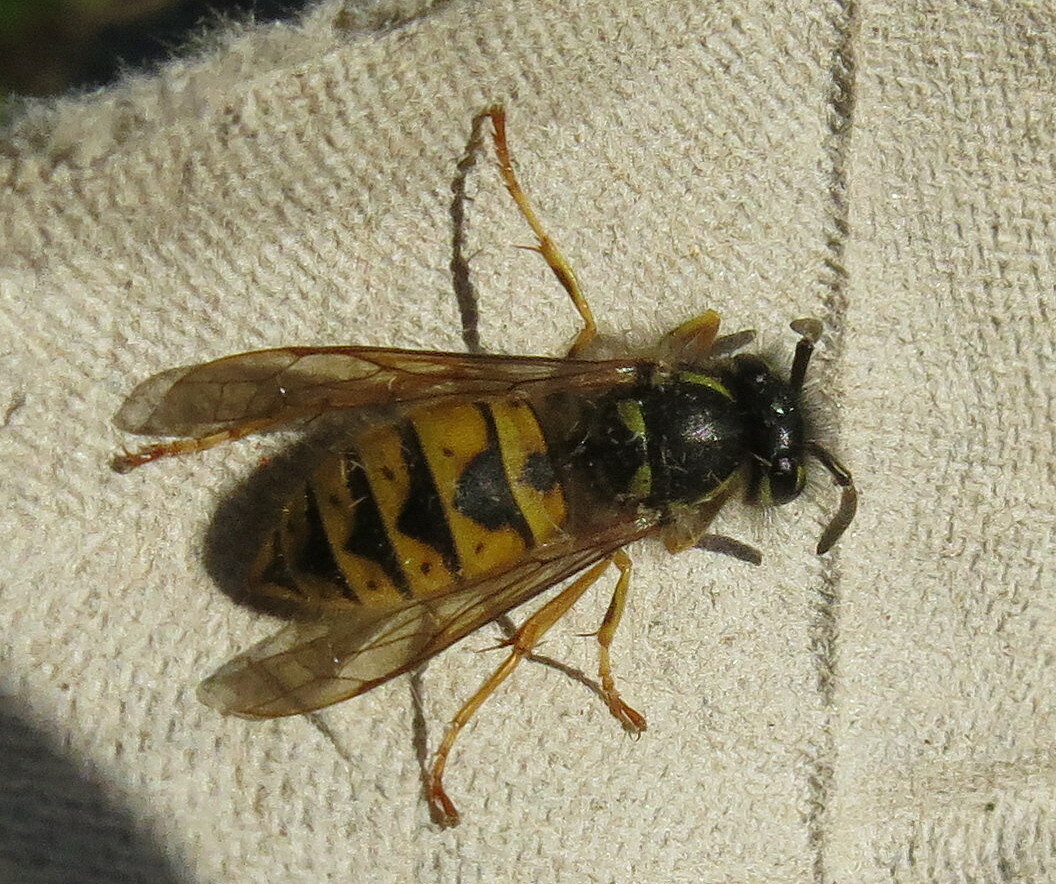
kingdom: Animalia
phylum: Arthropoda
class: Insecta
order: Hymenoptera
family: Vespidae
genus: Vespula
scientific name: Vespula vulgaris
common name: Common wasp
